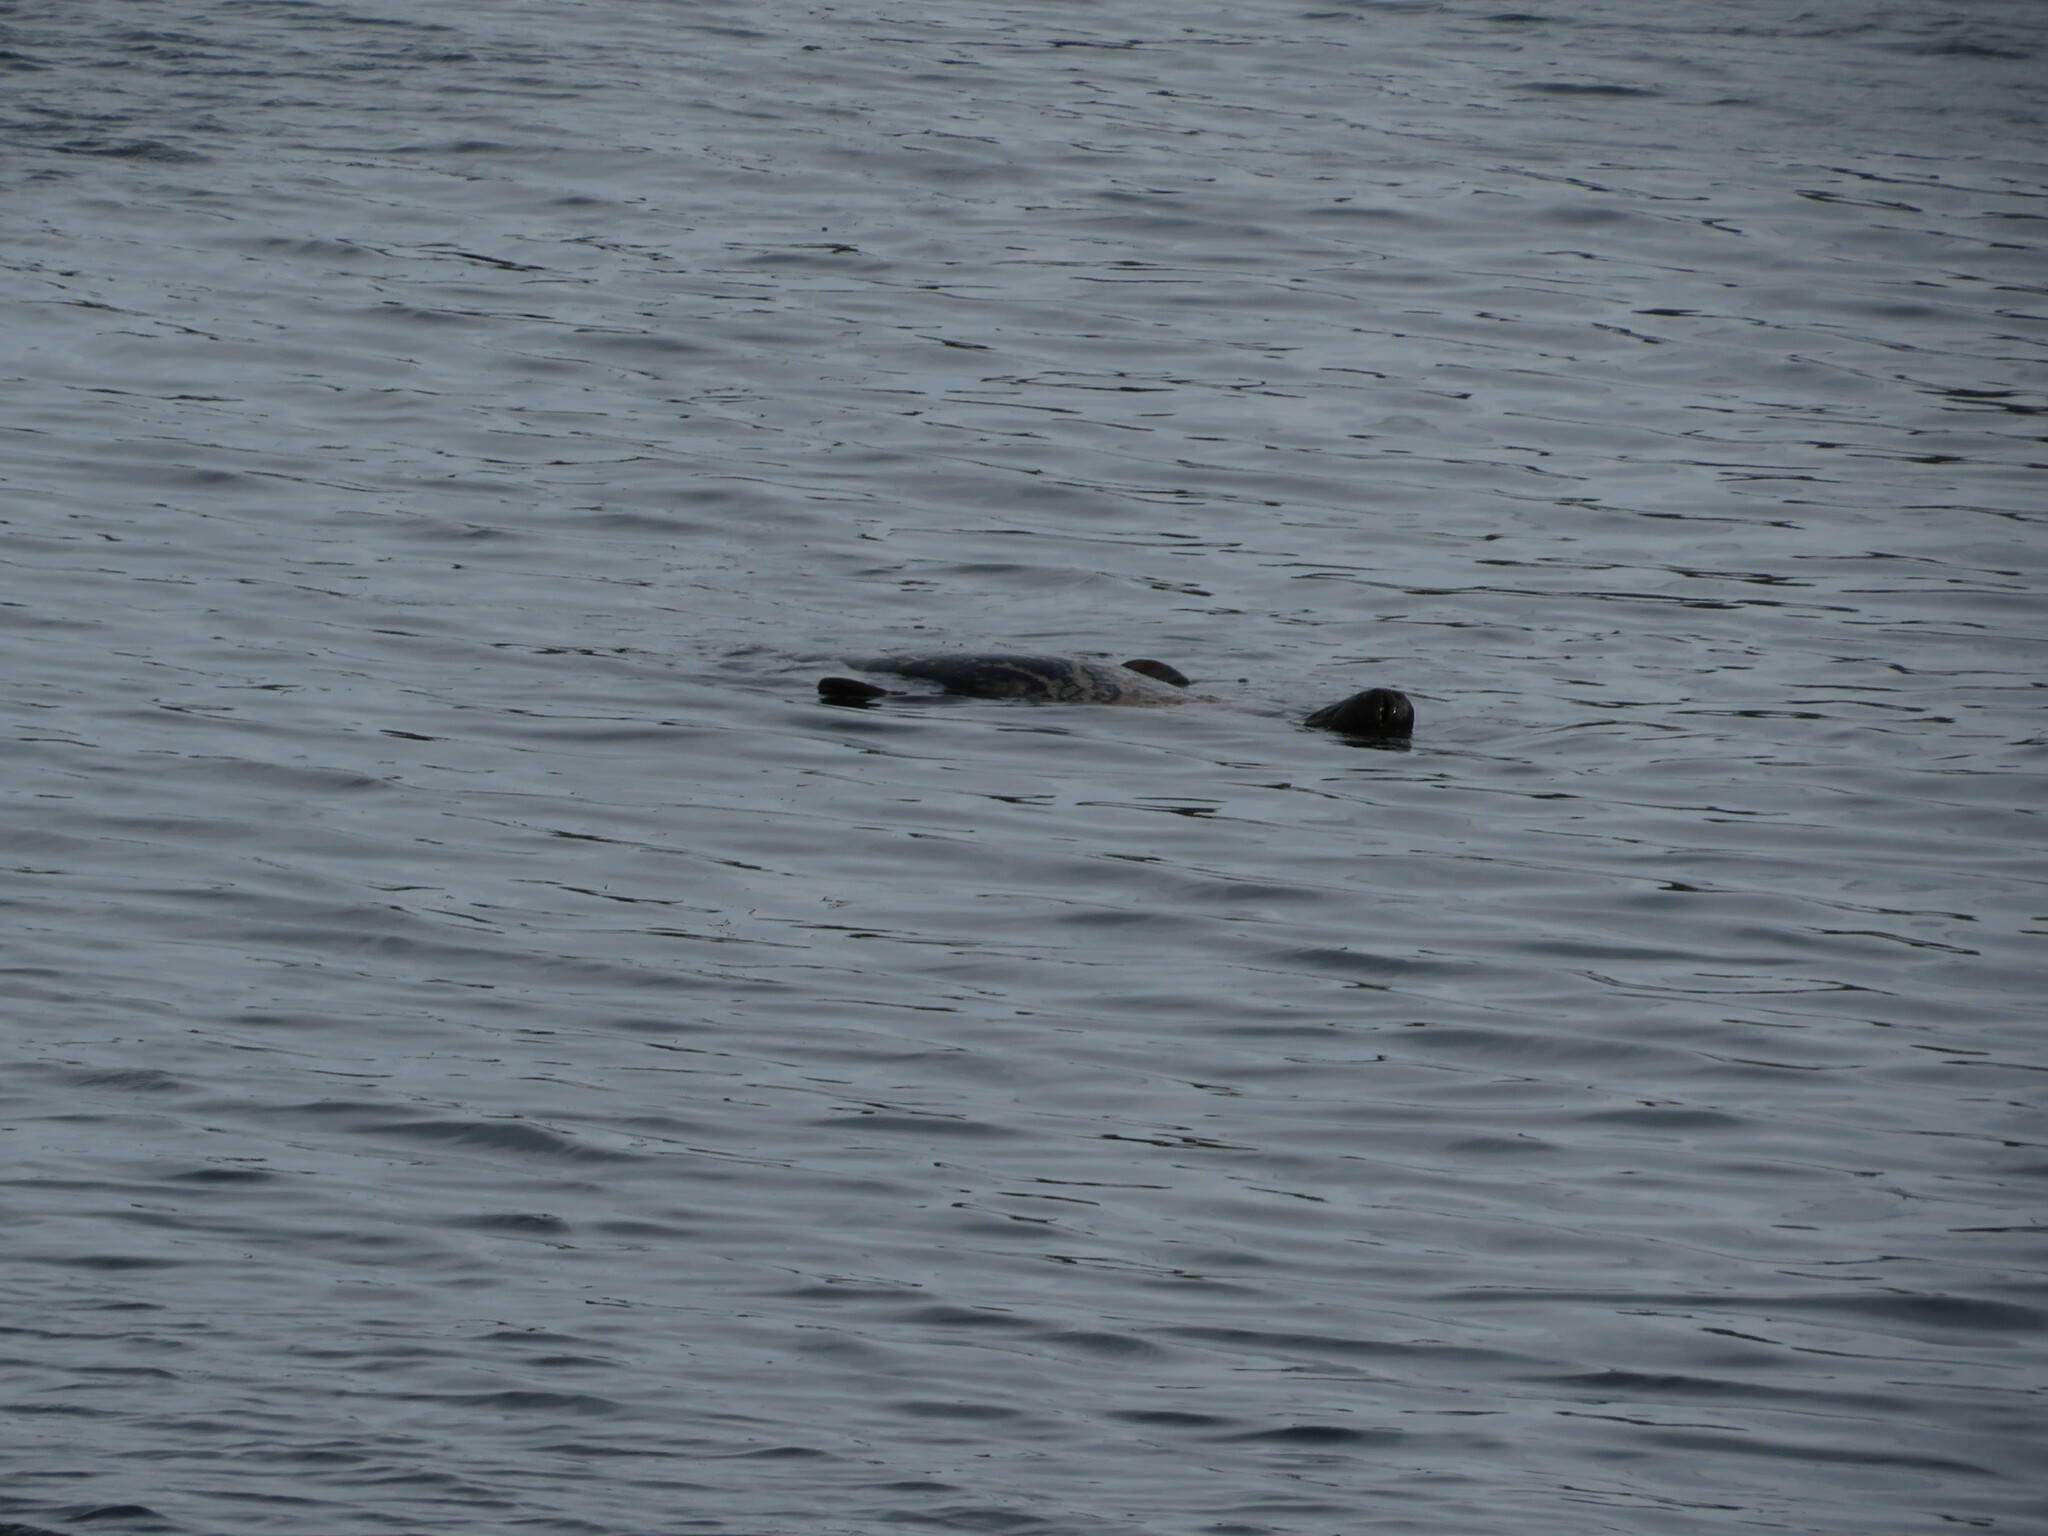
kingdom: Animalia
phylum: Chordata
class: Mammalia
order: Carnivora
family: Phocidae
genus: Halichoerus
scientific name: Halichoerus grypus
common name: Grey seal
